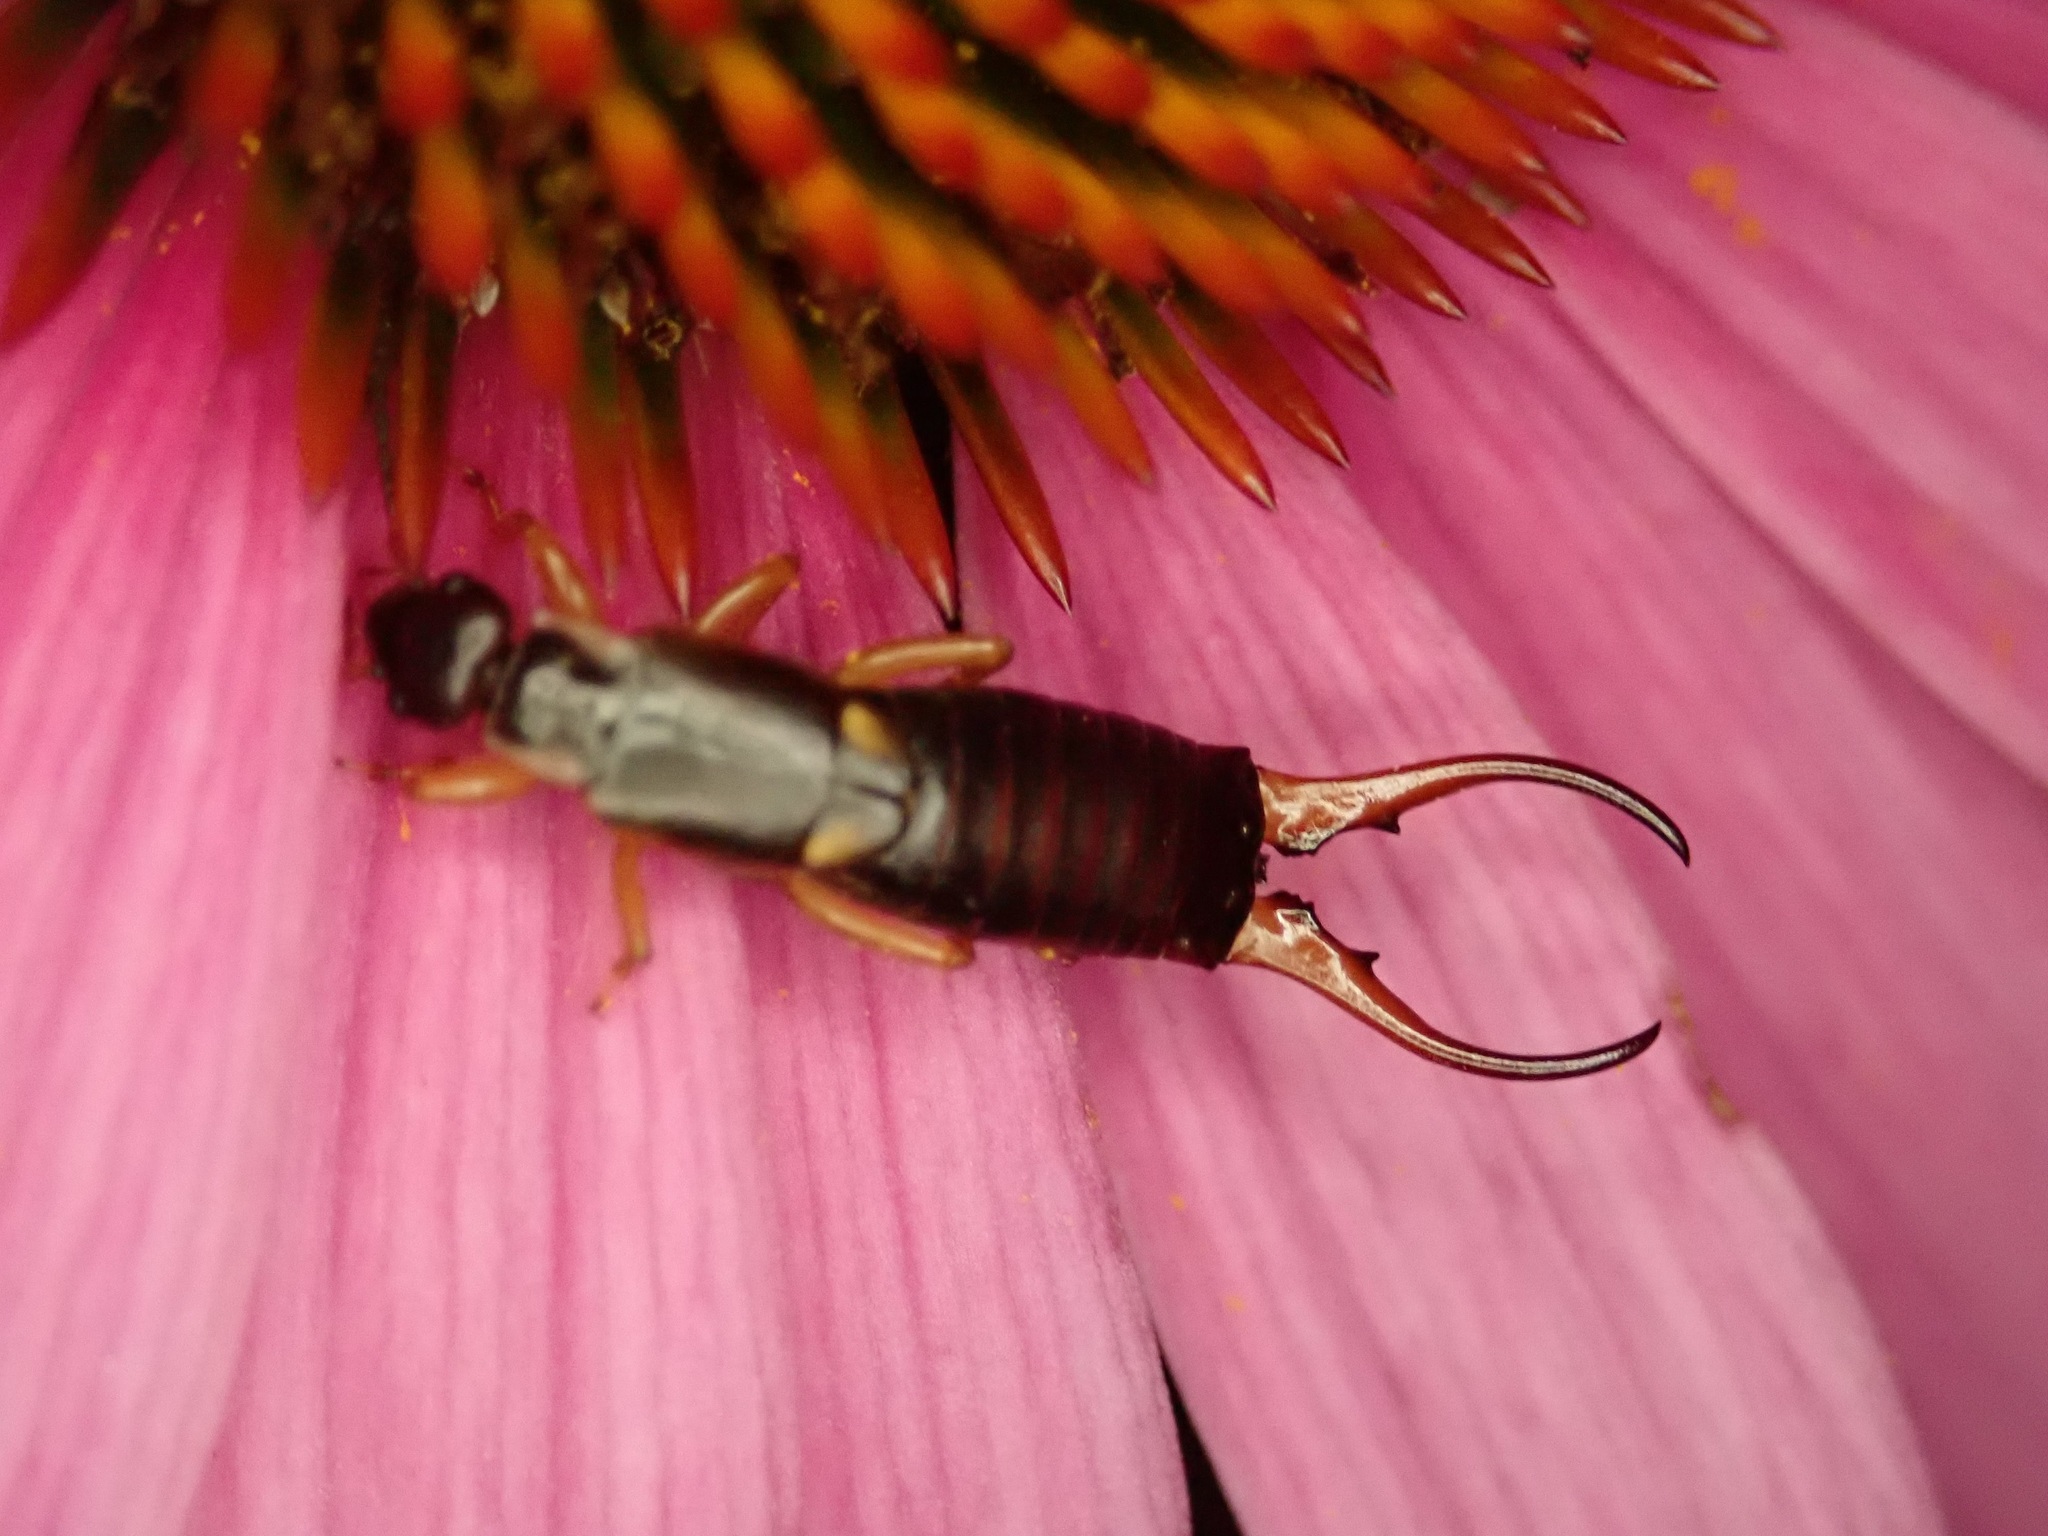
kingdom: Animalia
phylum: Arthropoda
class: Insecta
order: Dermaptera
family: Forficulidae
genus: Forficula
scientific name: Forficula
